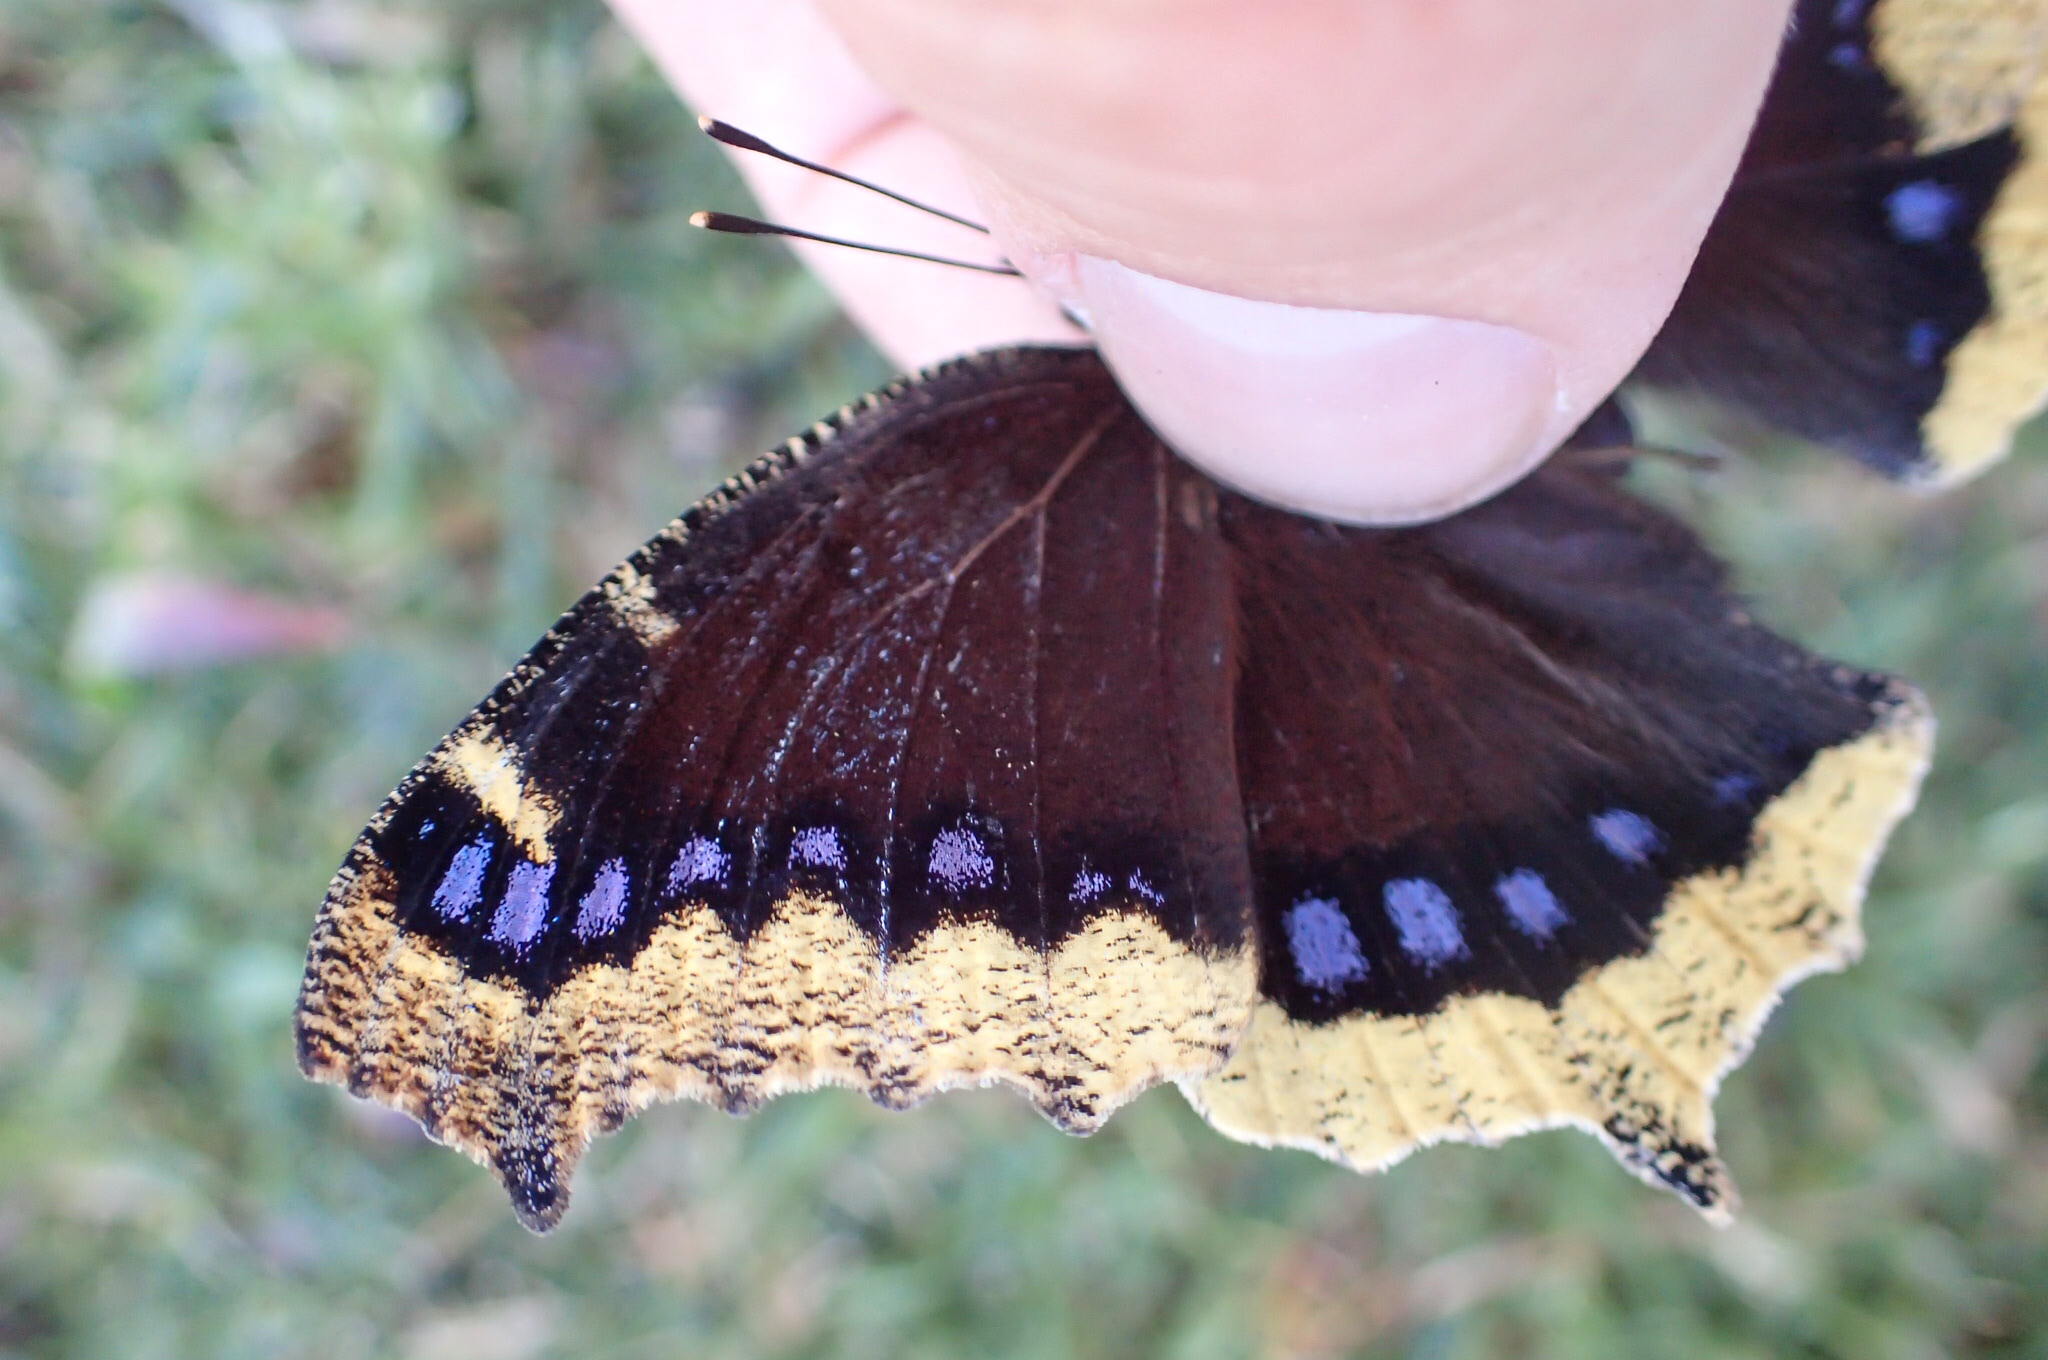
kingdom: Animalia
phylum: Arthropoda
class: Insecta
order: Lepidoptera
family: Nymphalidae
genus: Nymphalis
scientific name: Nymphalis antiopa
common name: Camberwell beauty
